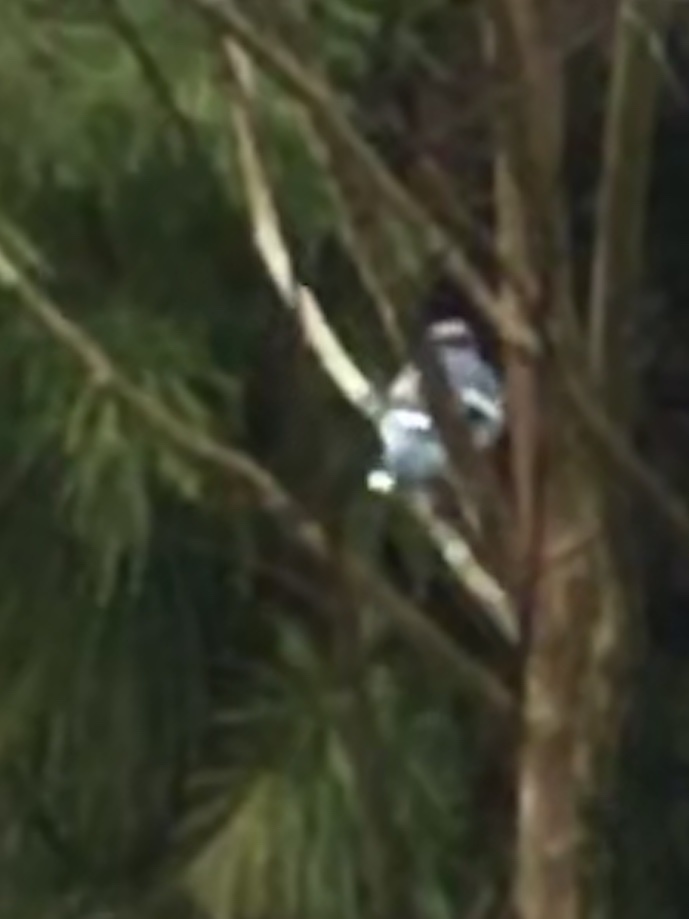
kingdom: Animalia
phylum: Chordata
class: Aves
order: Passeriformes
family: Corvidae
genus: Cyanocitta
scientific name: Cyanocitta cristata
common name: Blue jay
